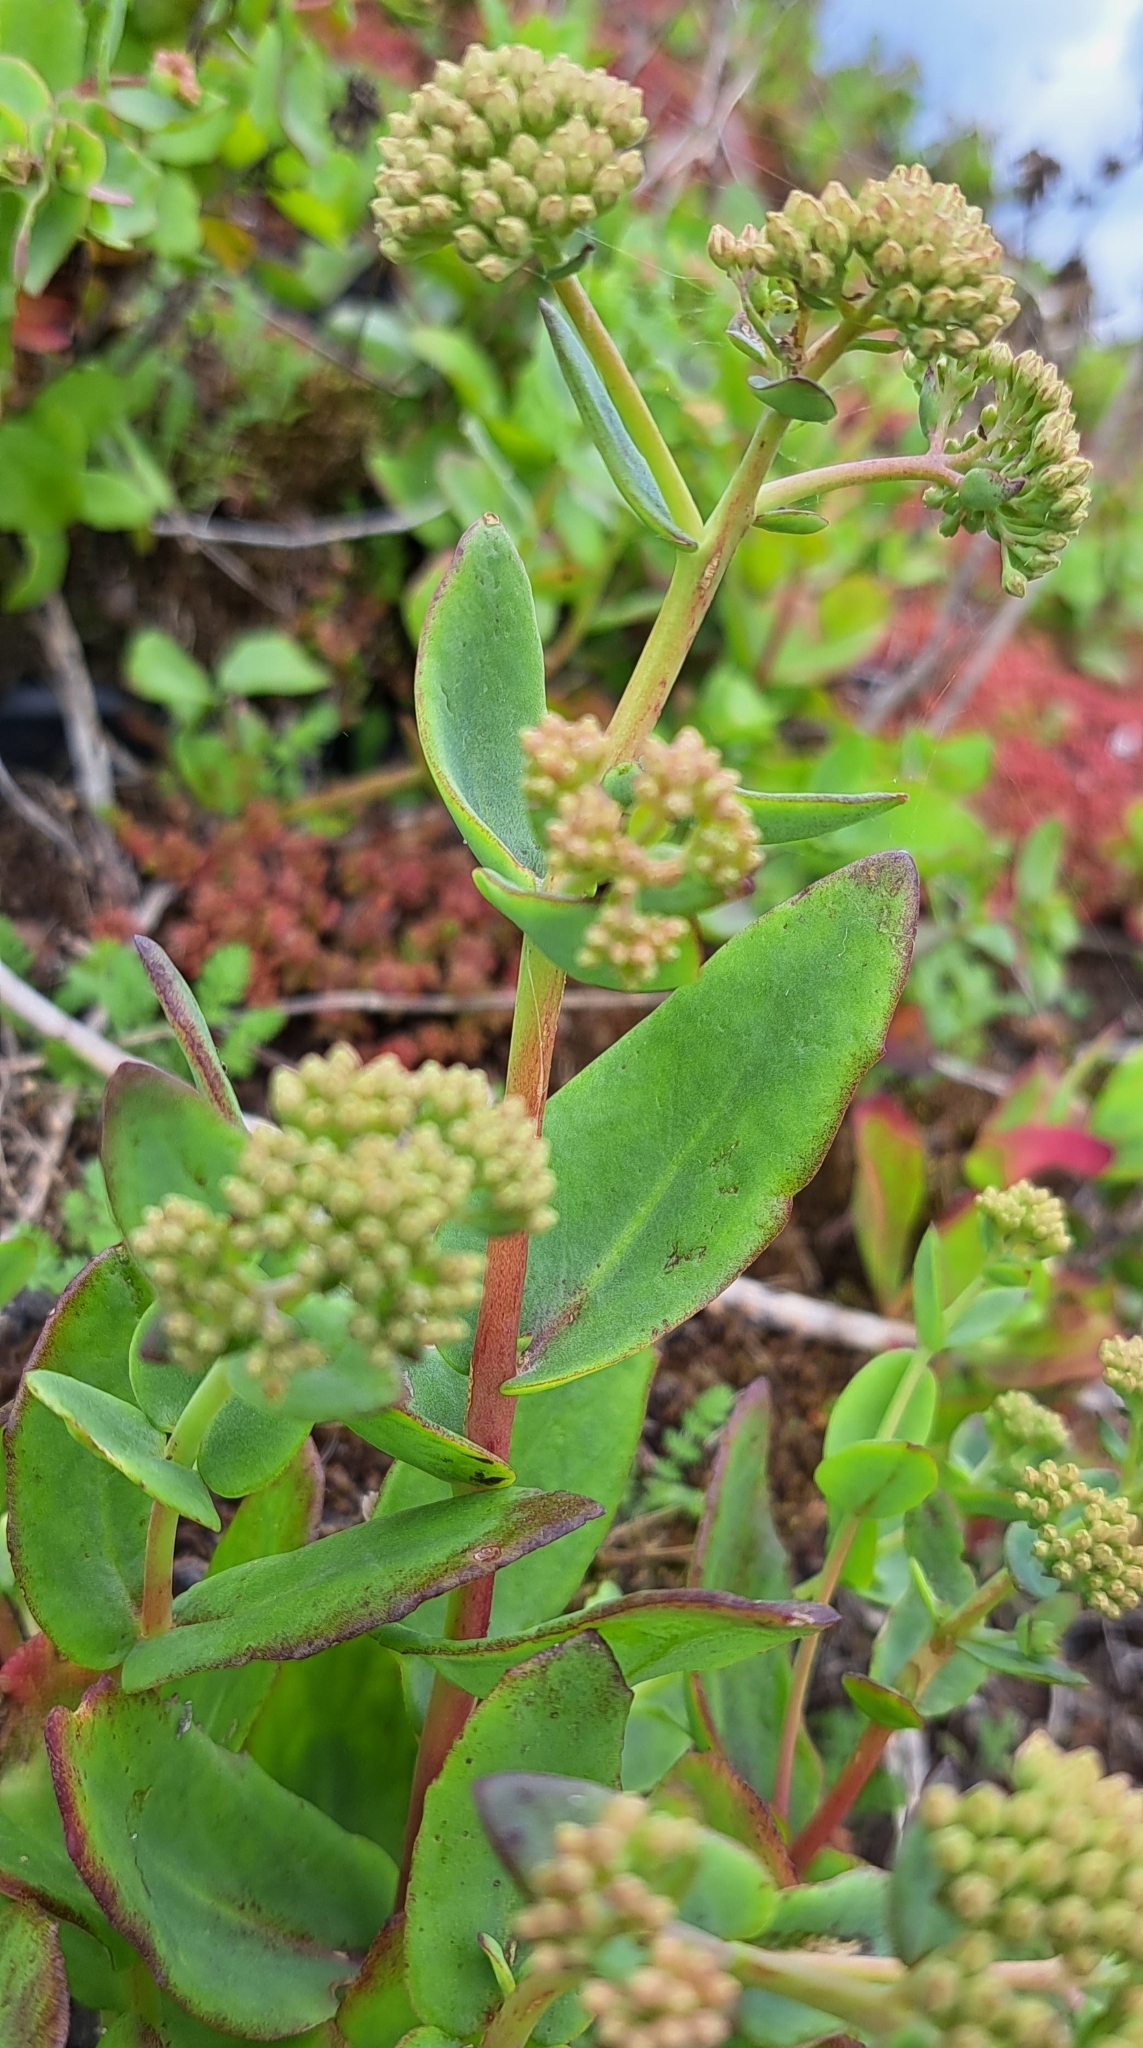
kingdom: Plantae
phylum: Tracheophyta
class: Magnoliopsida
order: Saxifragales
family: Crassulaceae
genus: Hylotelephium
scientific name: Hylotelephium maximum
